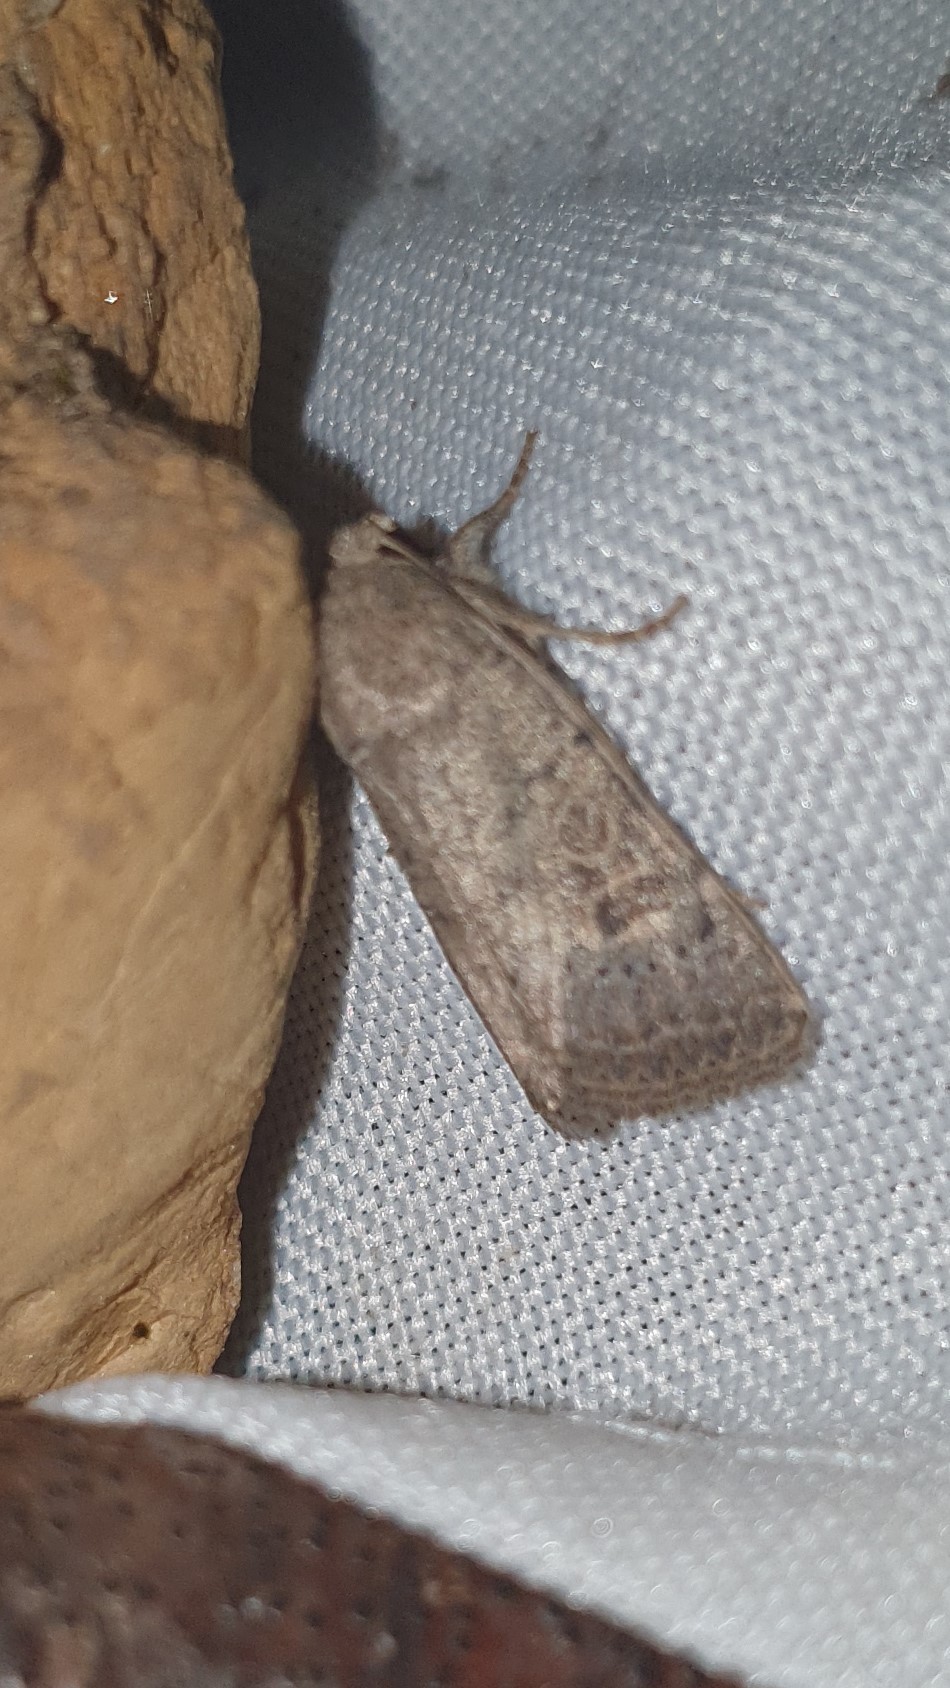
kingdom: Animalia
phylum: Arthropoda
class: Insecta
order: Lepidoptera
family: Noctuidae
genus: Hoplodrina
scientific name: Hoplodrina ambigua
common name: Vine's rustic
